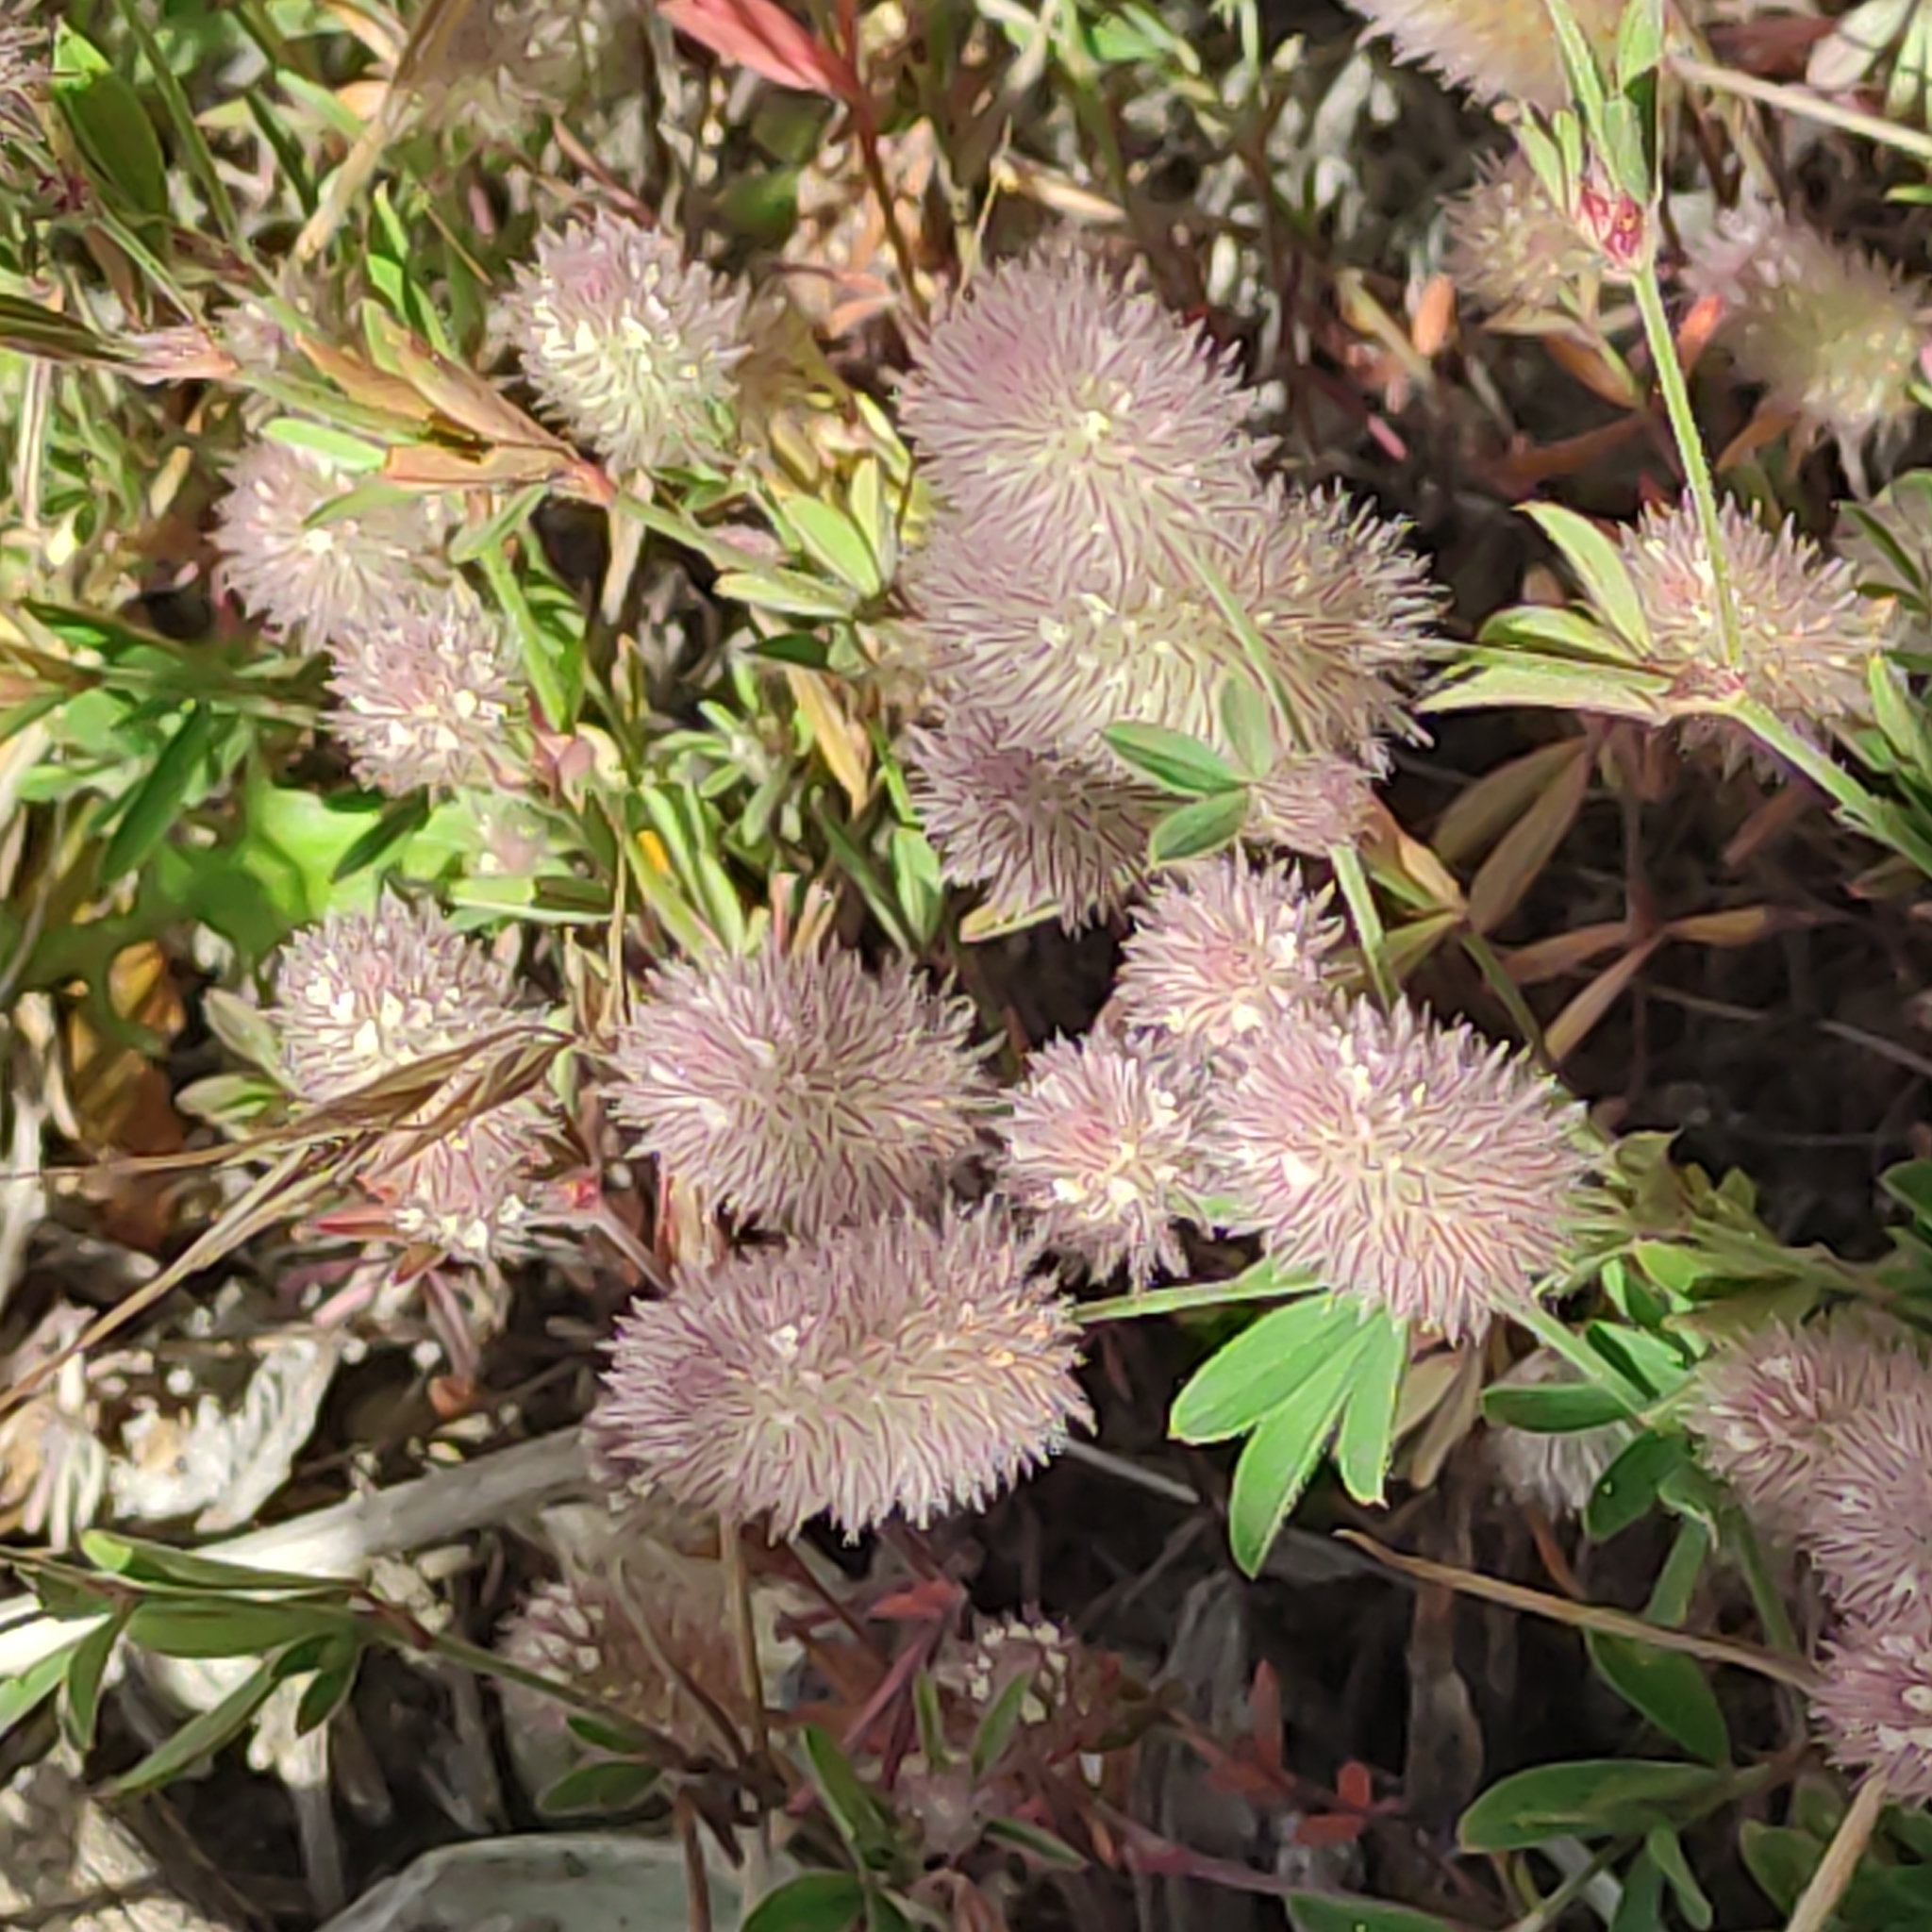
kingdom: Plantae
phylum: Tracheophyta
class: Magnoliopsida
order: Fabales
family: Fabaceae
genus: Trifolium
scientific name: Trifolium arvense
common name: Hare's-foot clover
